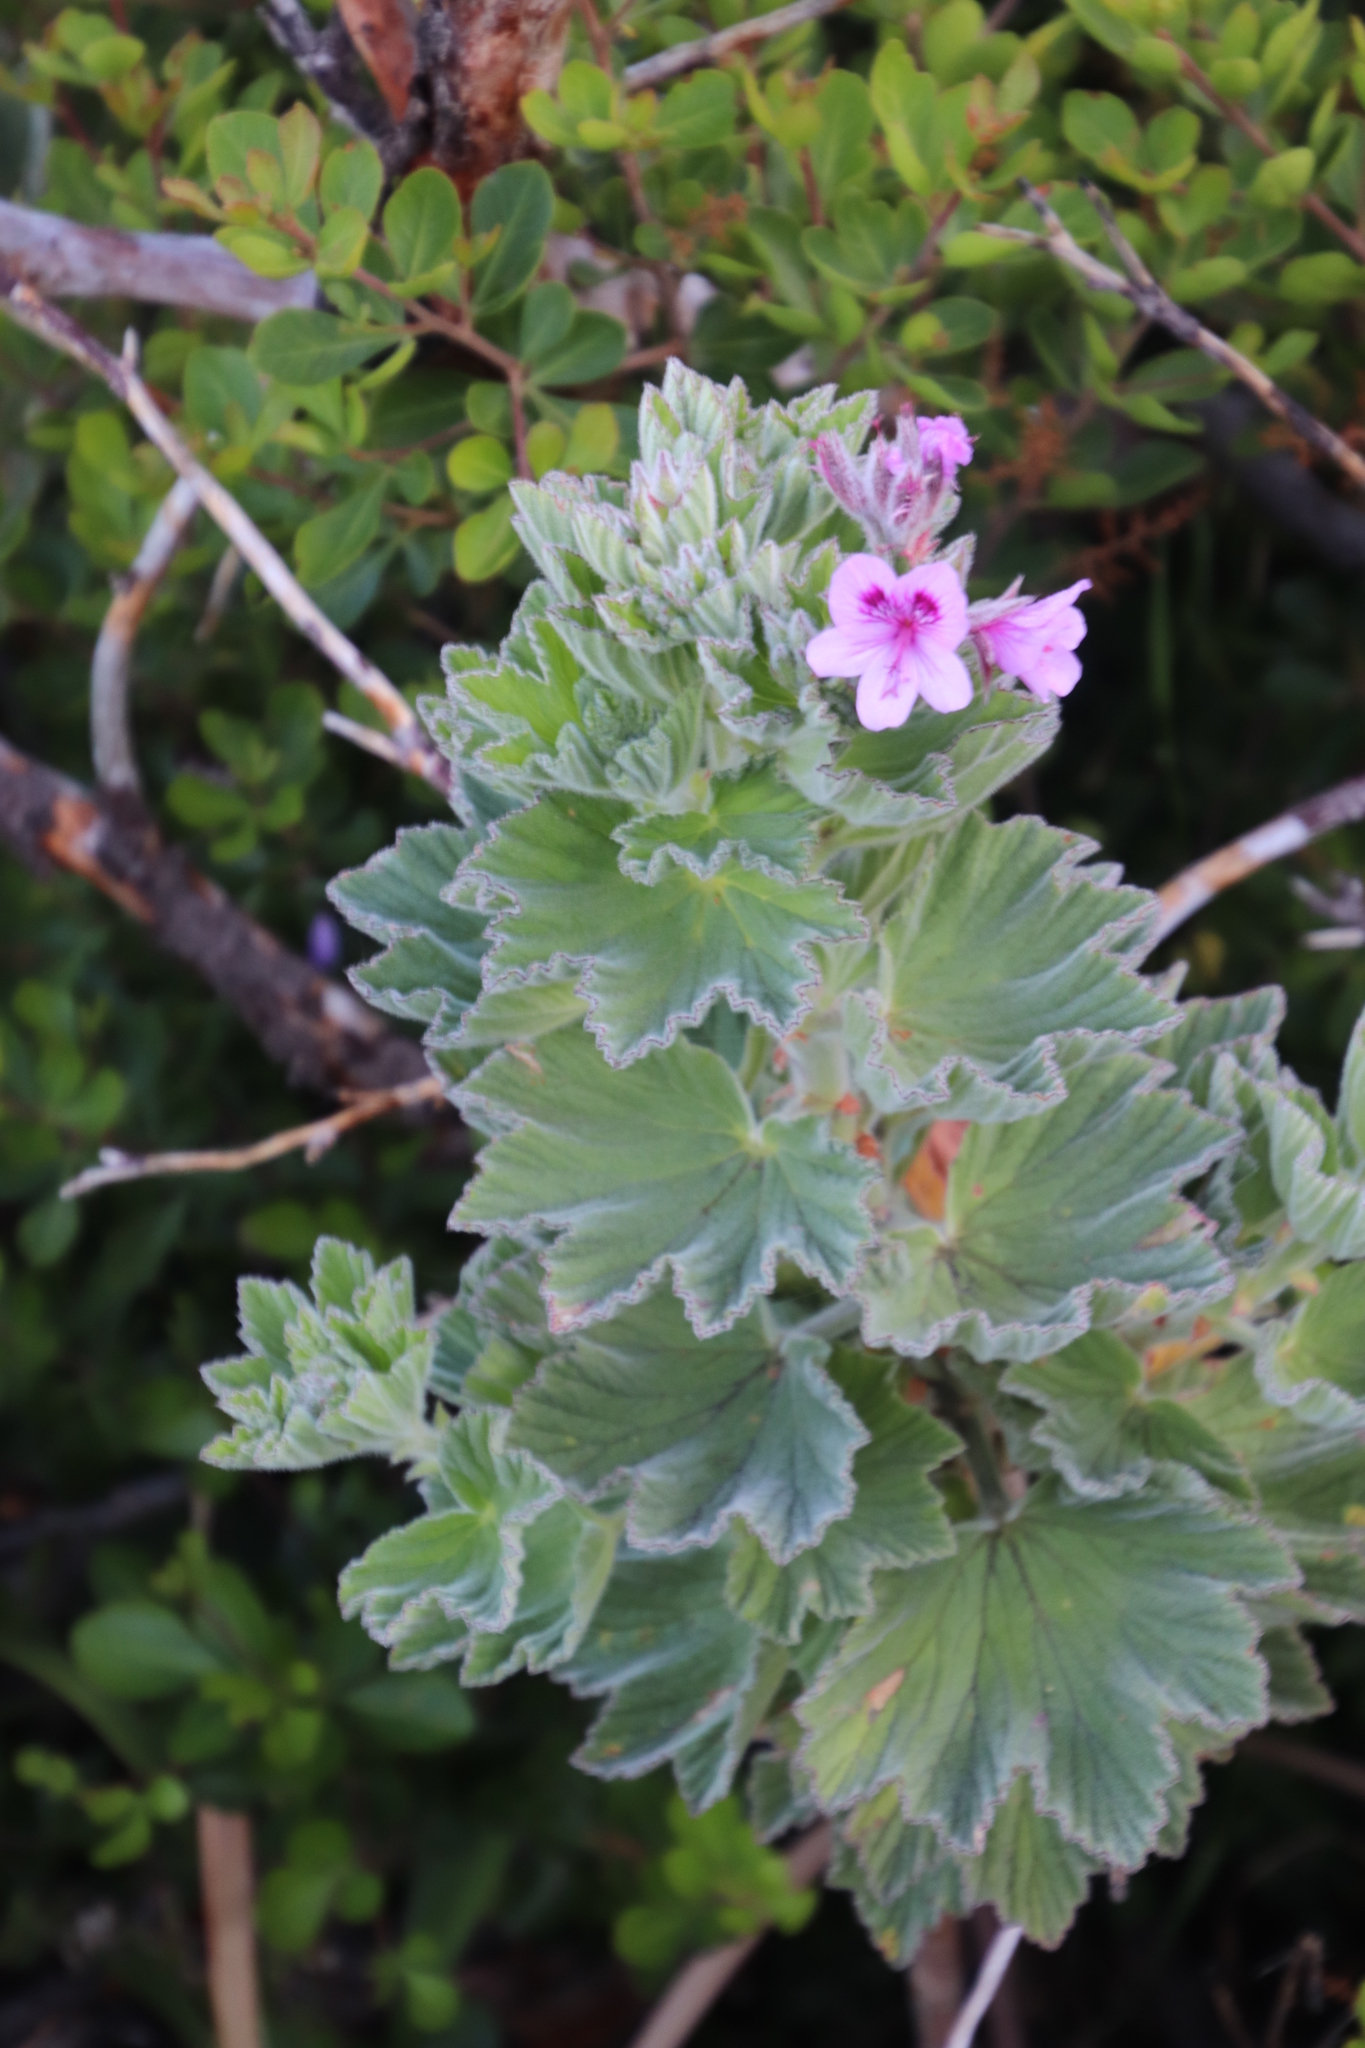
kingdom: Plantae
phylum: Tracheophyta
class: Magnoliopsida
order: Geraniales
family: Geraniaceae
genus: Pelargonium
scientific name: Pelargonium cucullatum
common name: Tree pelargonium
